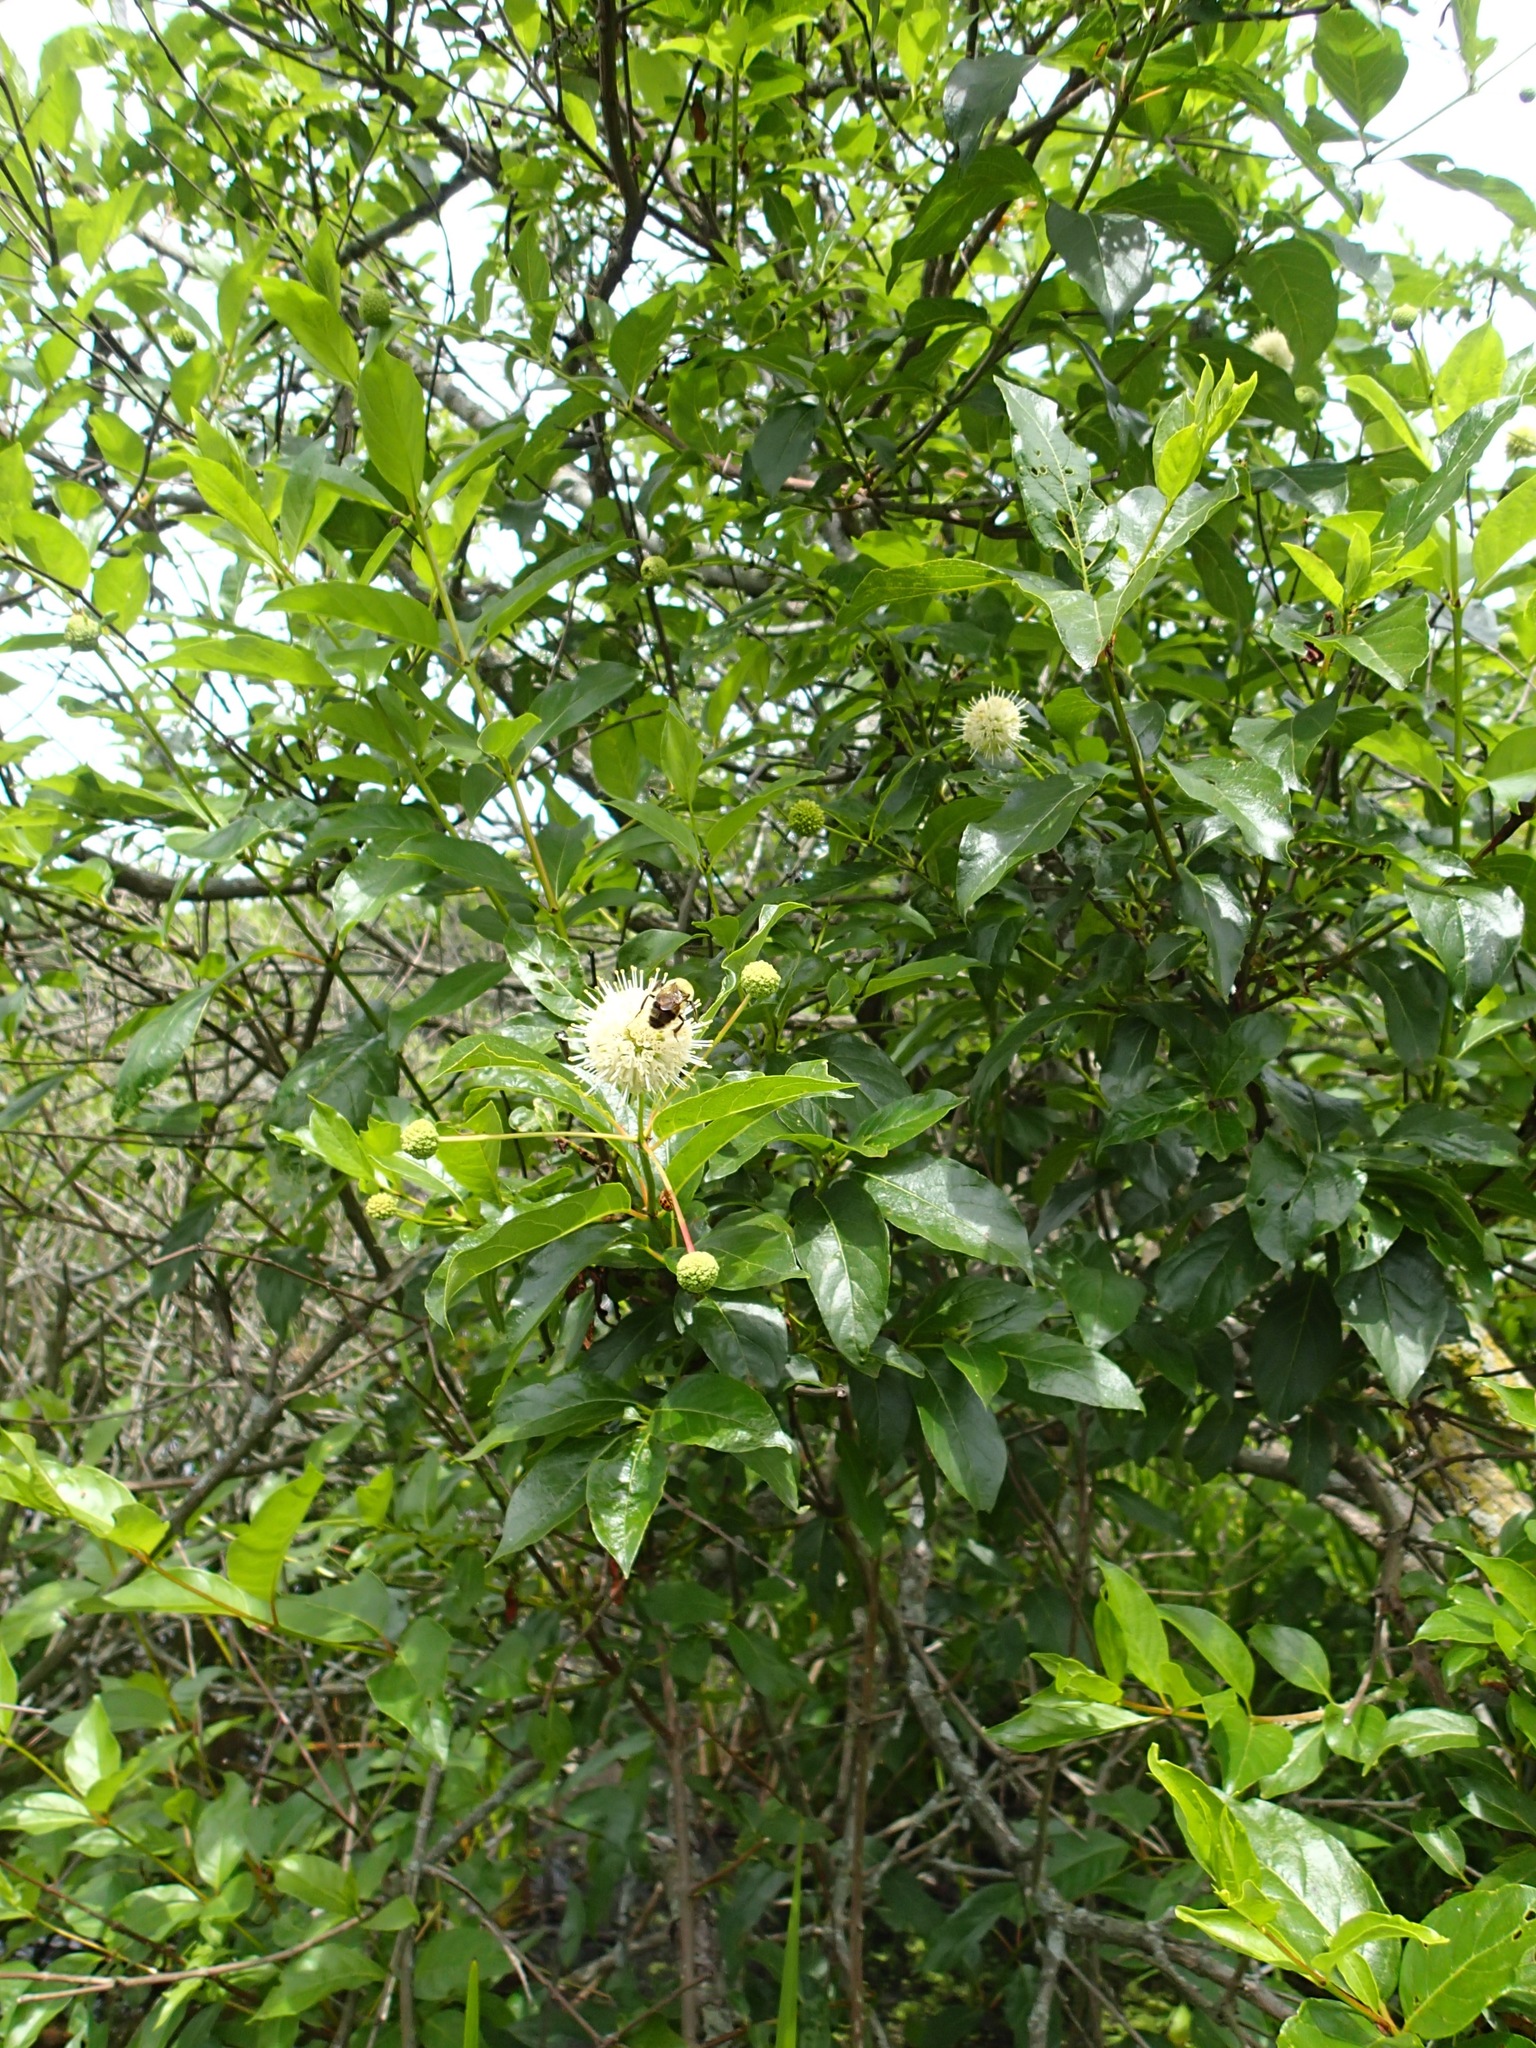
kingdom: Plantae
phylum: Tracheophyta
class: Magnoliopsida
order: Gentianales
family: Rubiaceae
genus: Cephalanthus
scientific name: Cephalanthus occidentalis
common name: Button-willow
